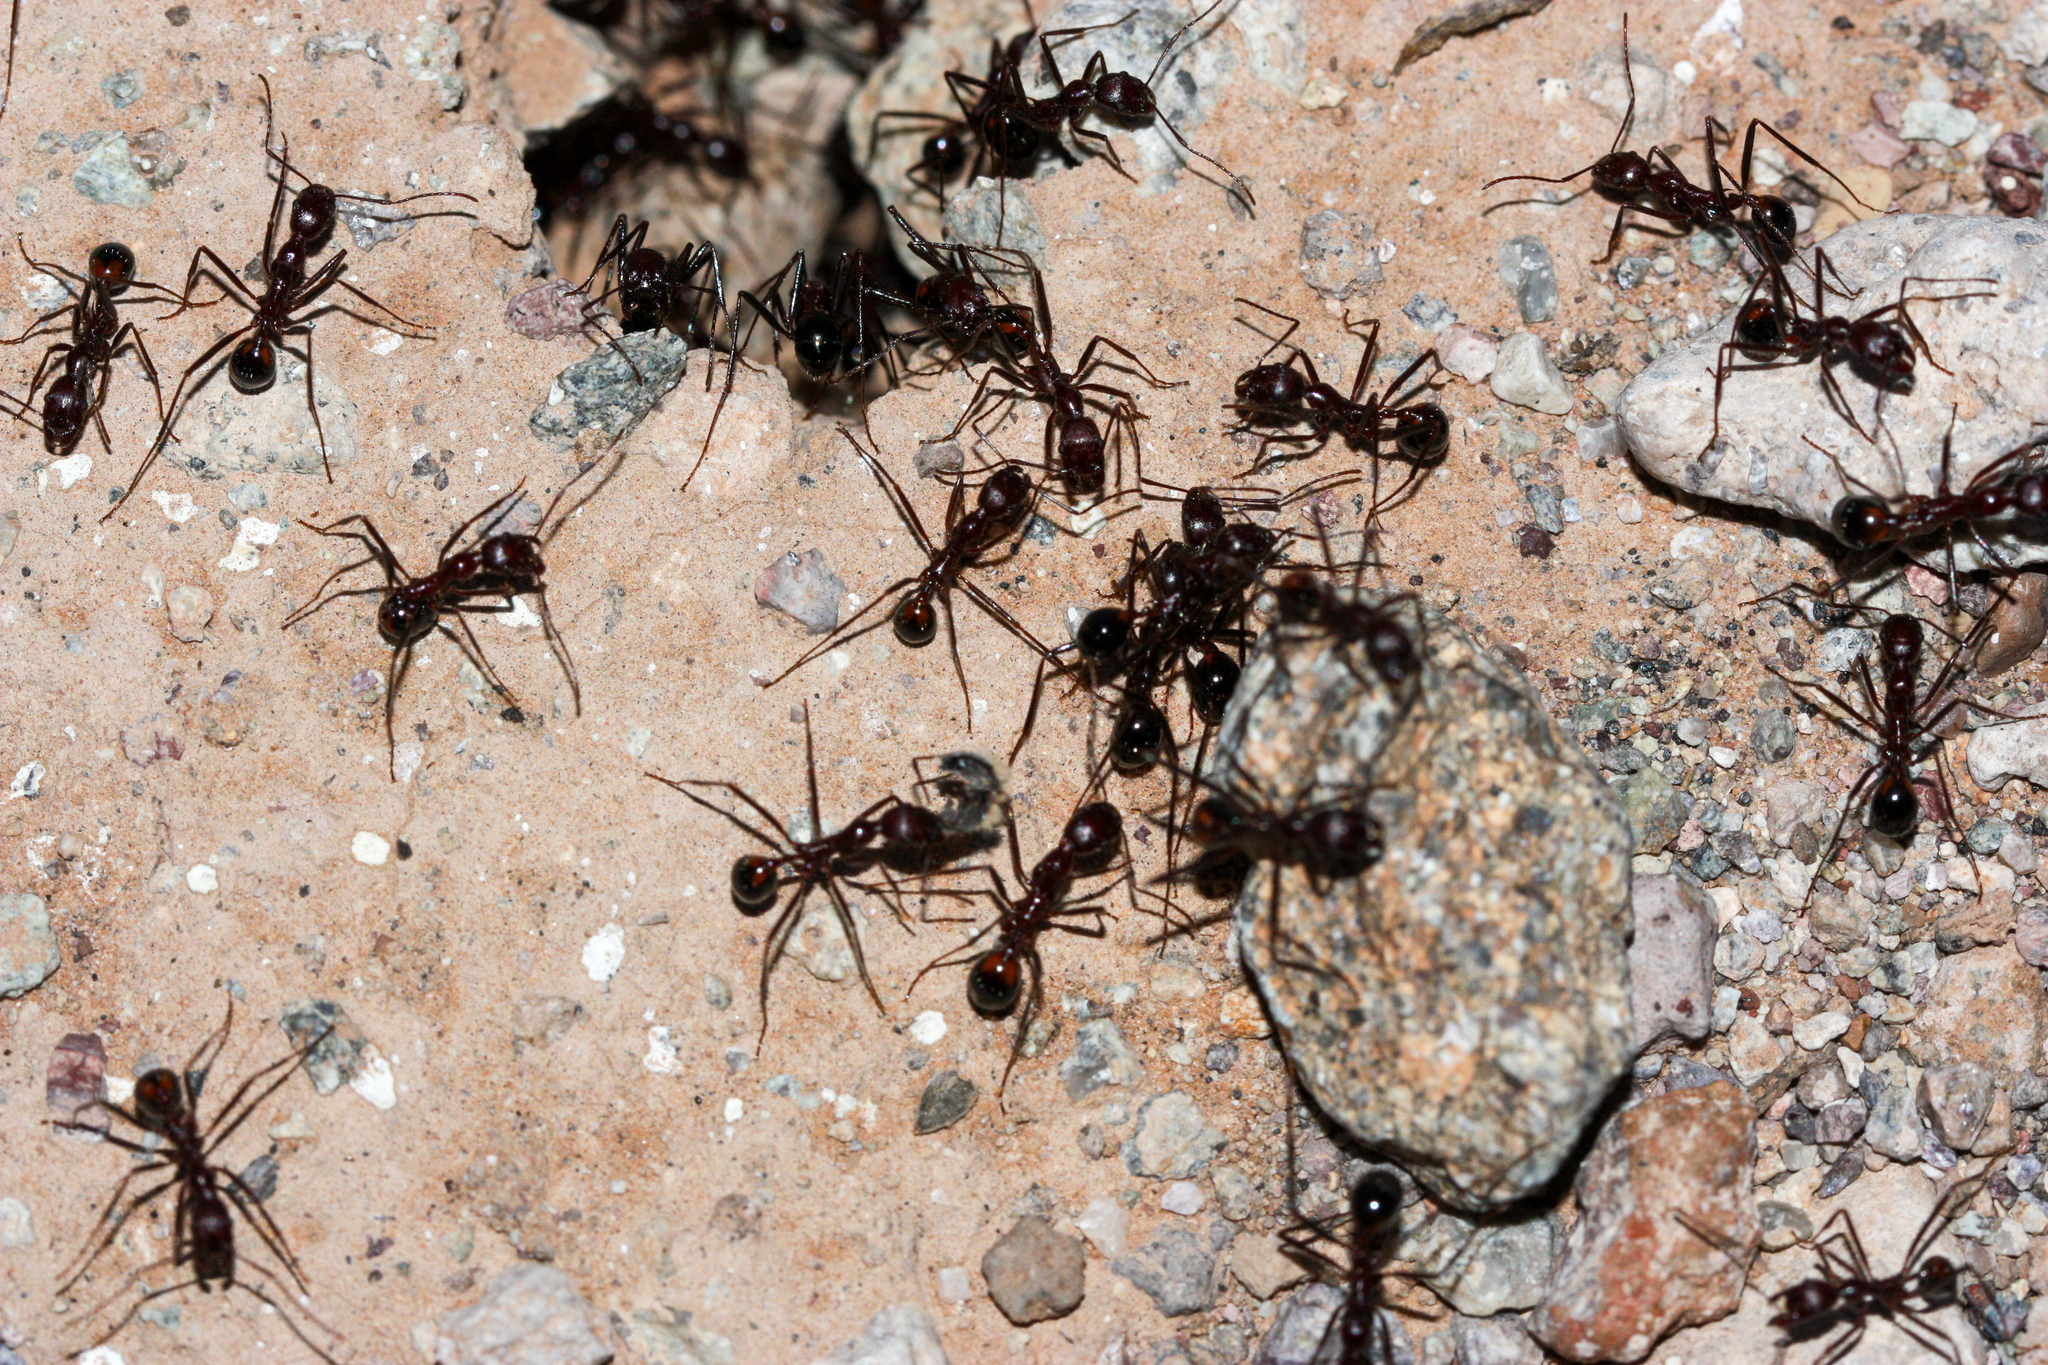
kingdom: Animalia
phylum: Arthropoda
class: Insecta
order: Hymenoptera
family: Formicidae
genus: Novomessor
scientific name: Novomessor cockerelli
